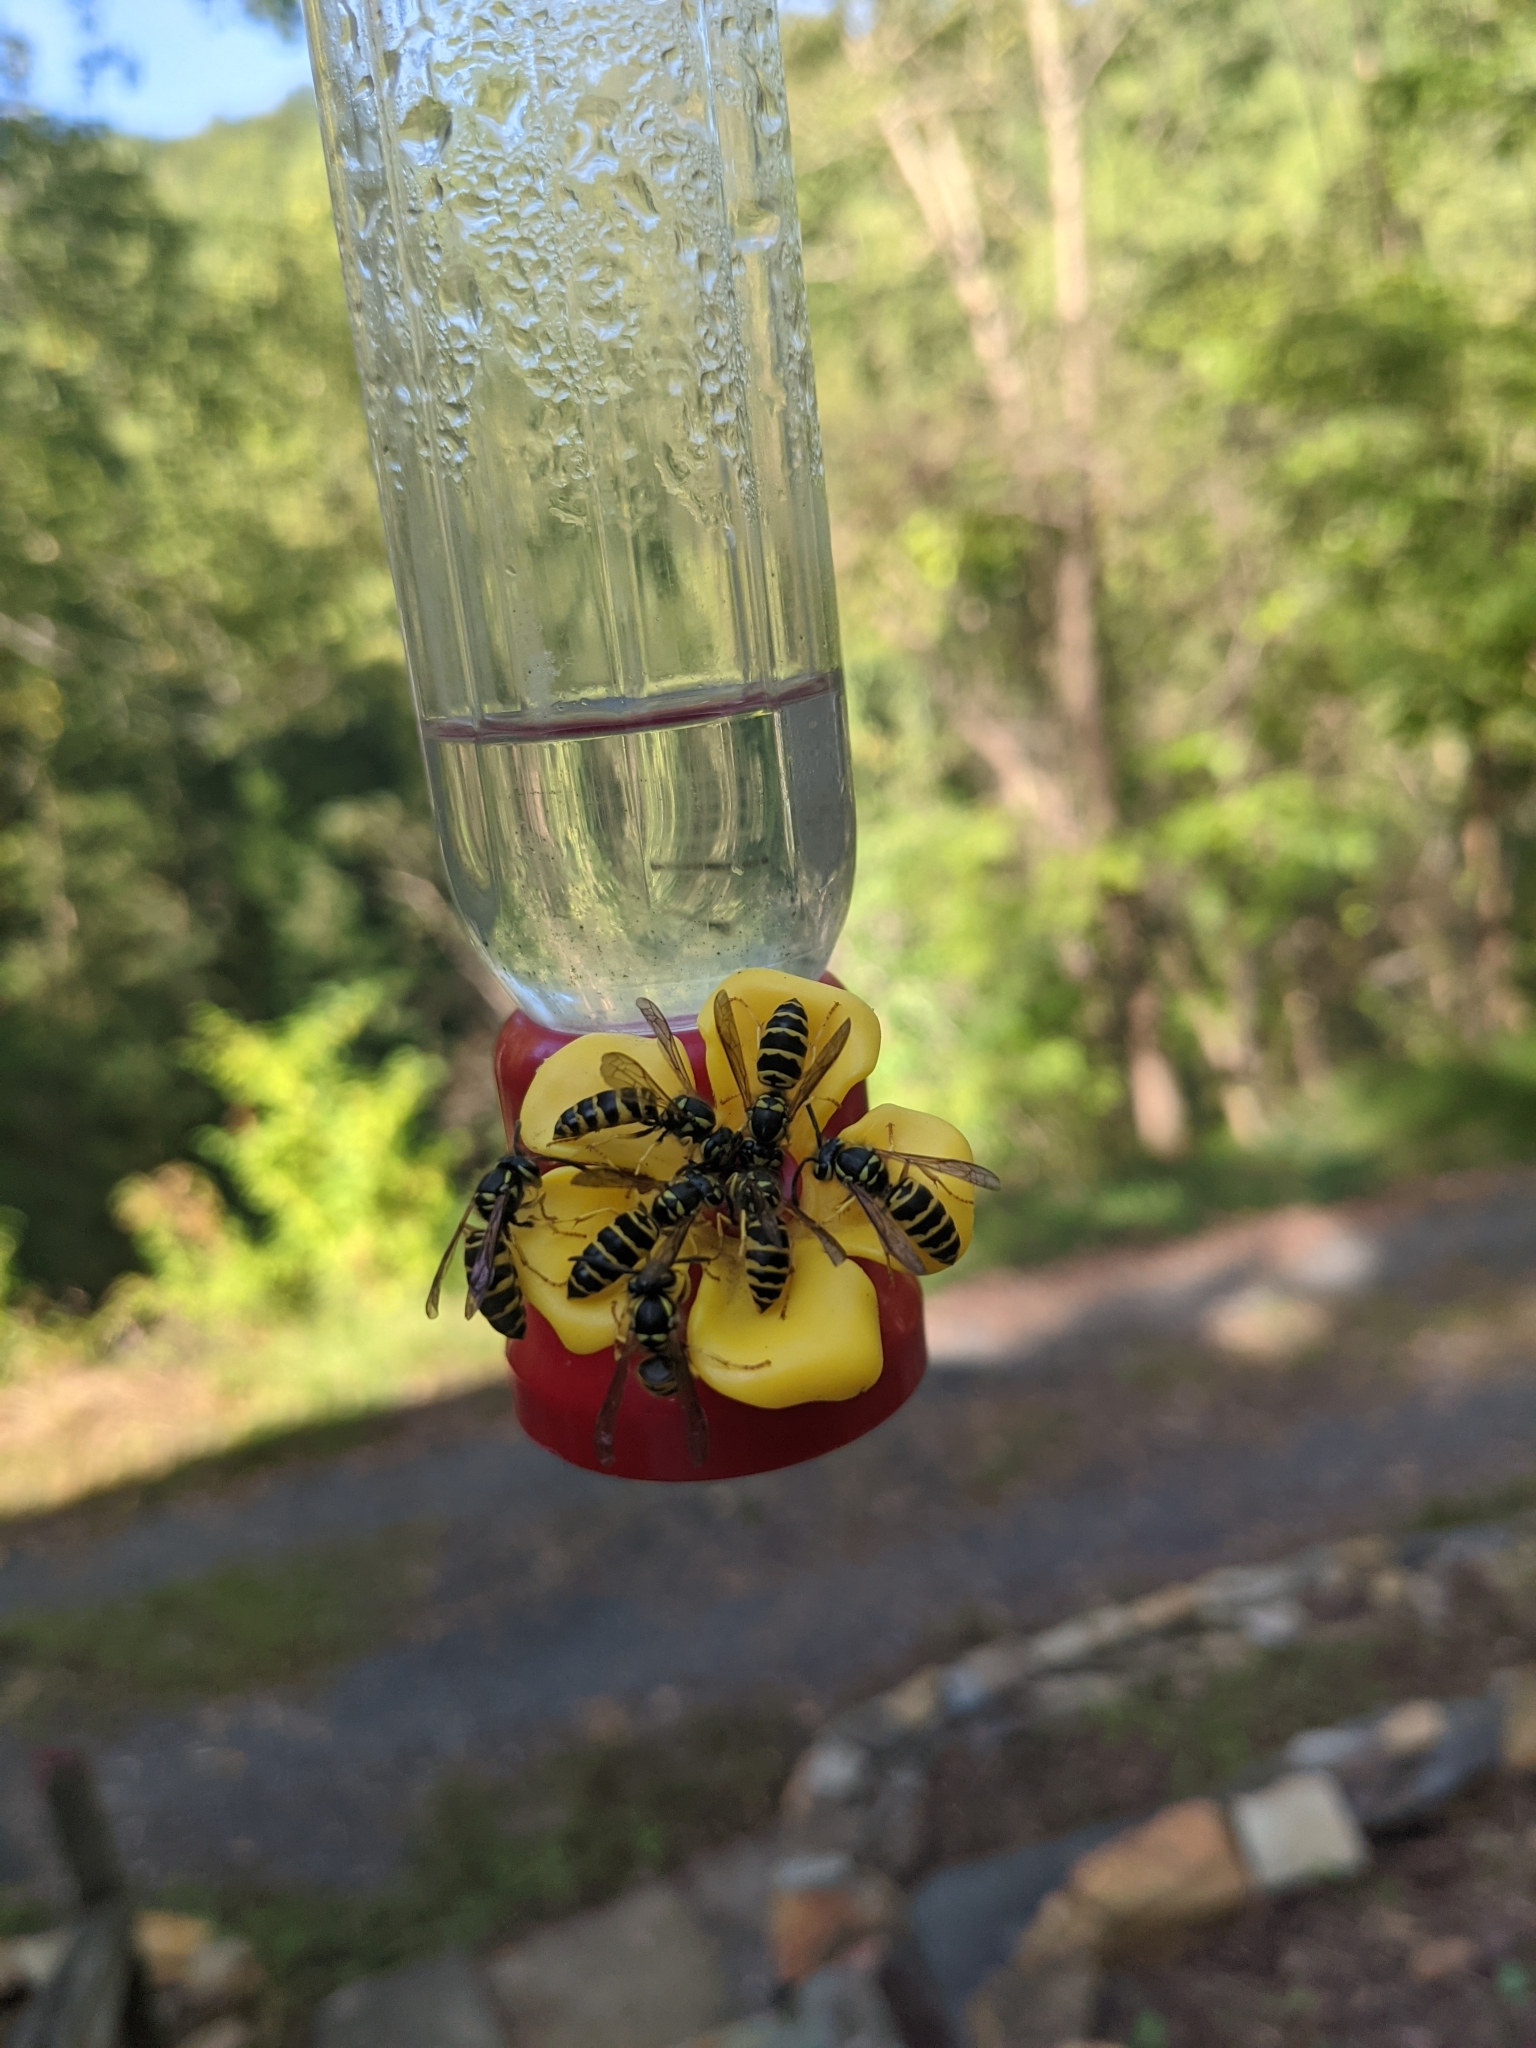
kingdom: Animalia
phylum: Arthropoda
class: Insecta
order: Hymenoptera
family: Vespidae
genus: Vespula
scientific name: Vespula maculifrons
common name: Eastern yellowjacket
